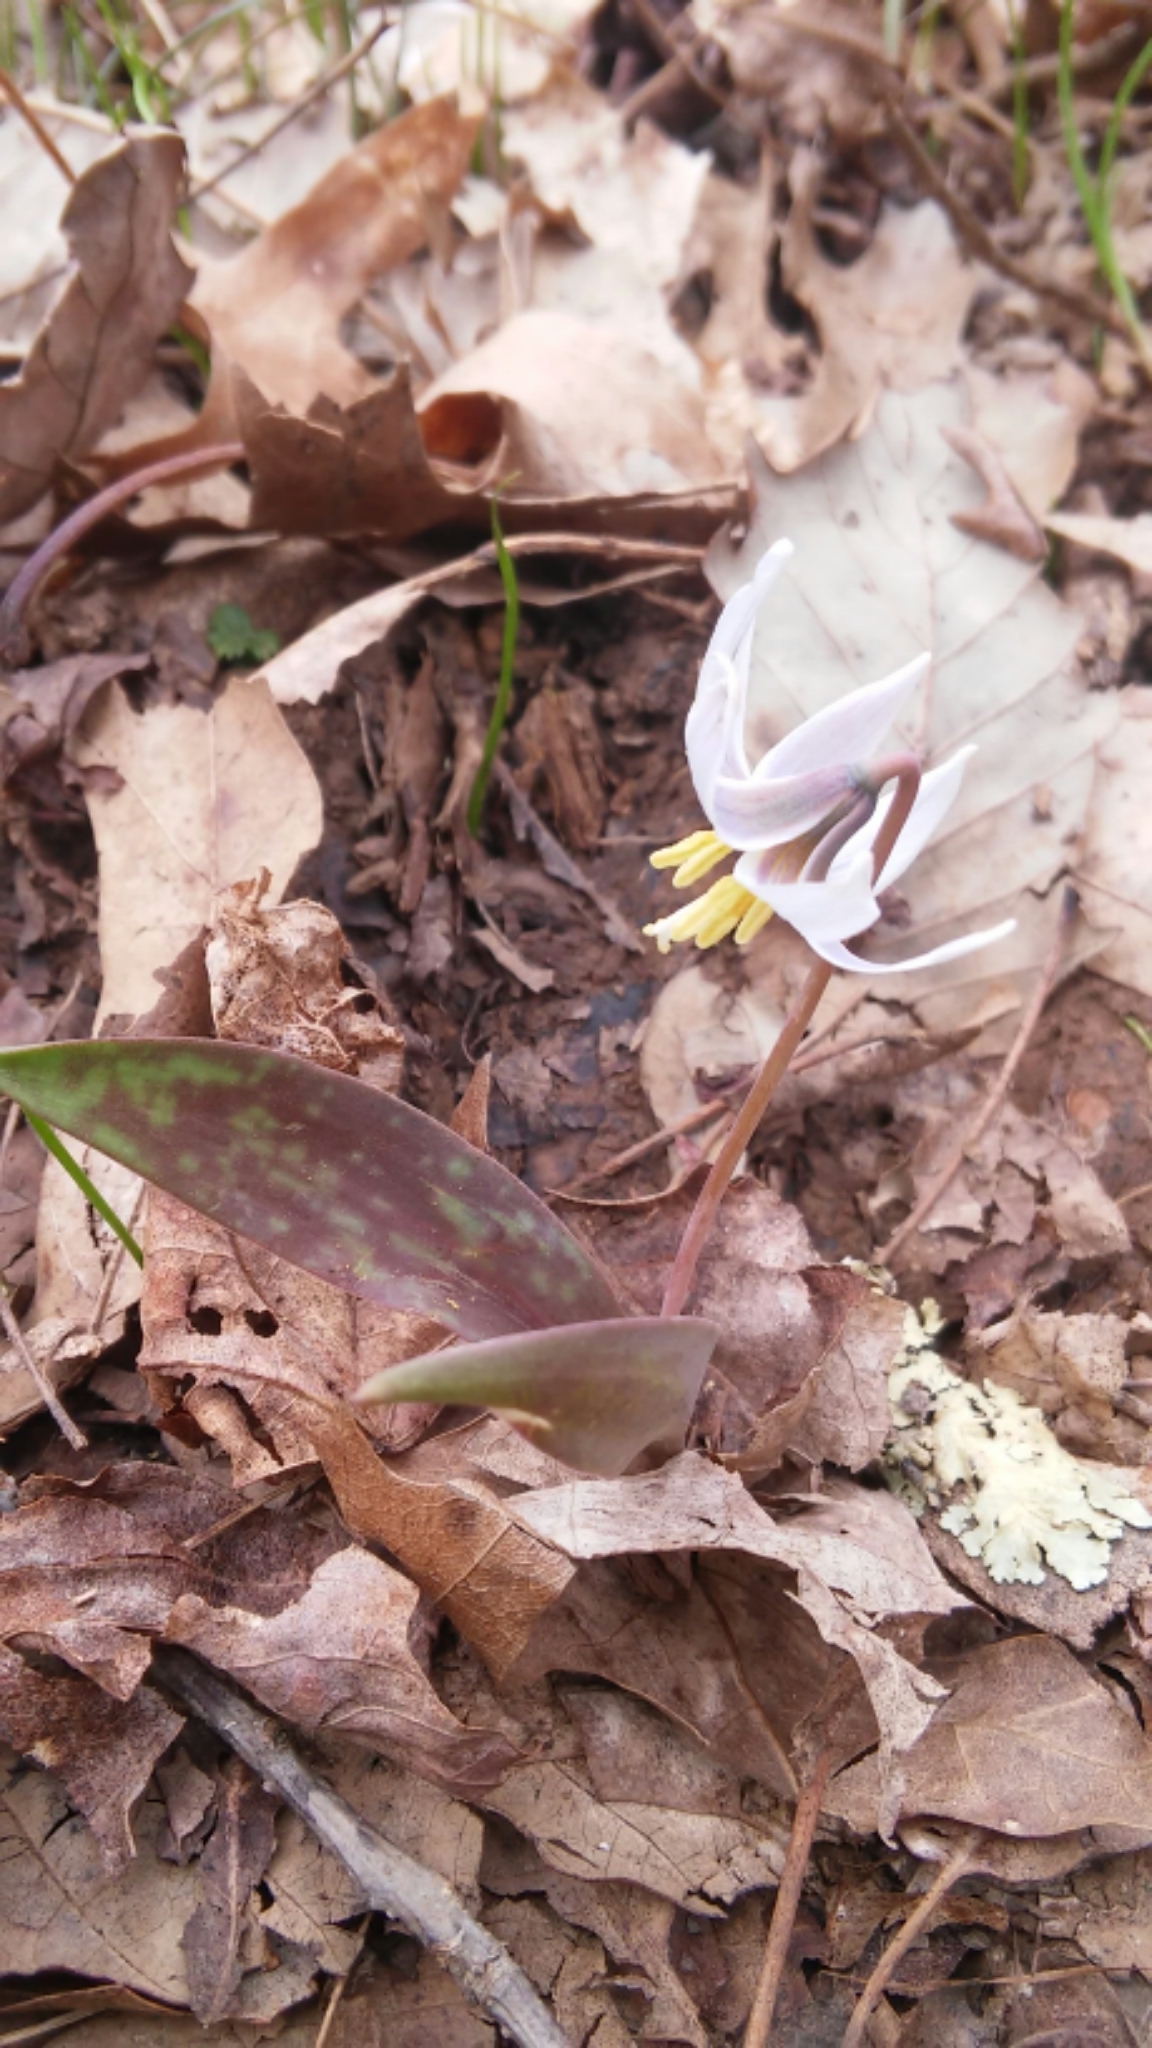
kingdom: Plantae
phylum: Tracheophyta
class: Liliopsida
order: Liliales
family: Liliaceae
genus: Erythronium
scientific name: Erythronium albidum
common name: White trout-lily
